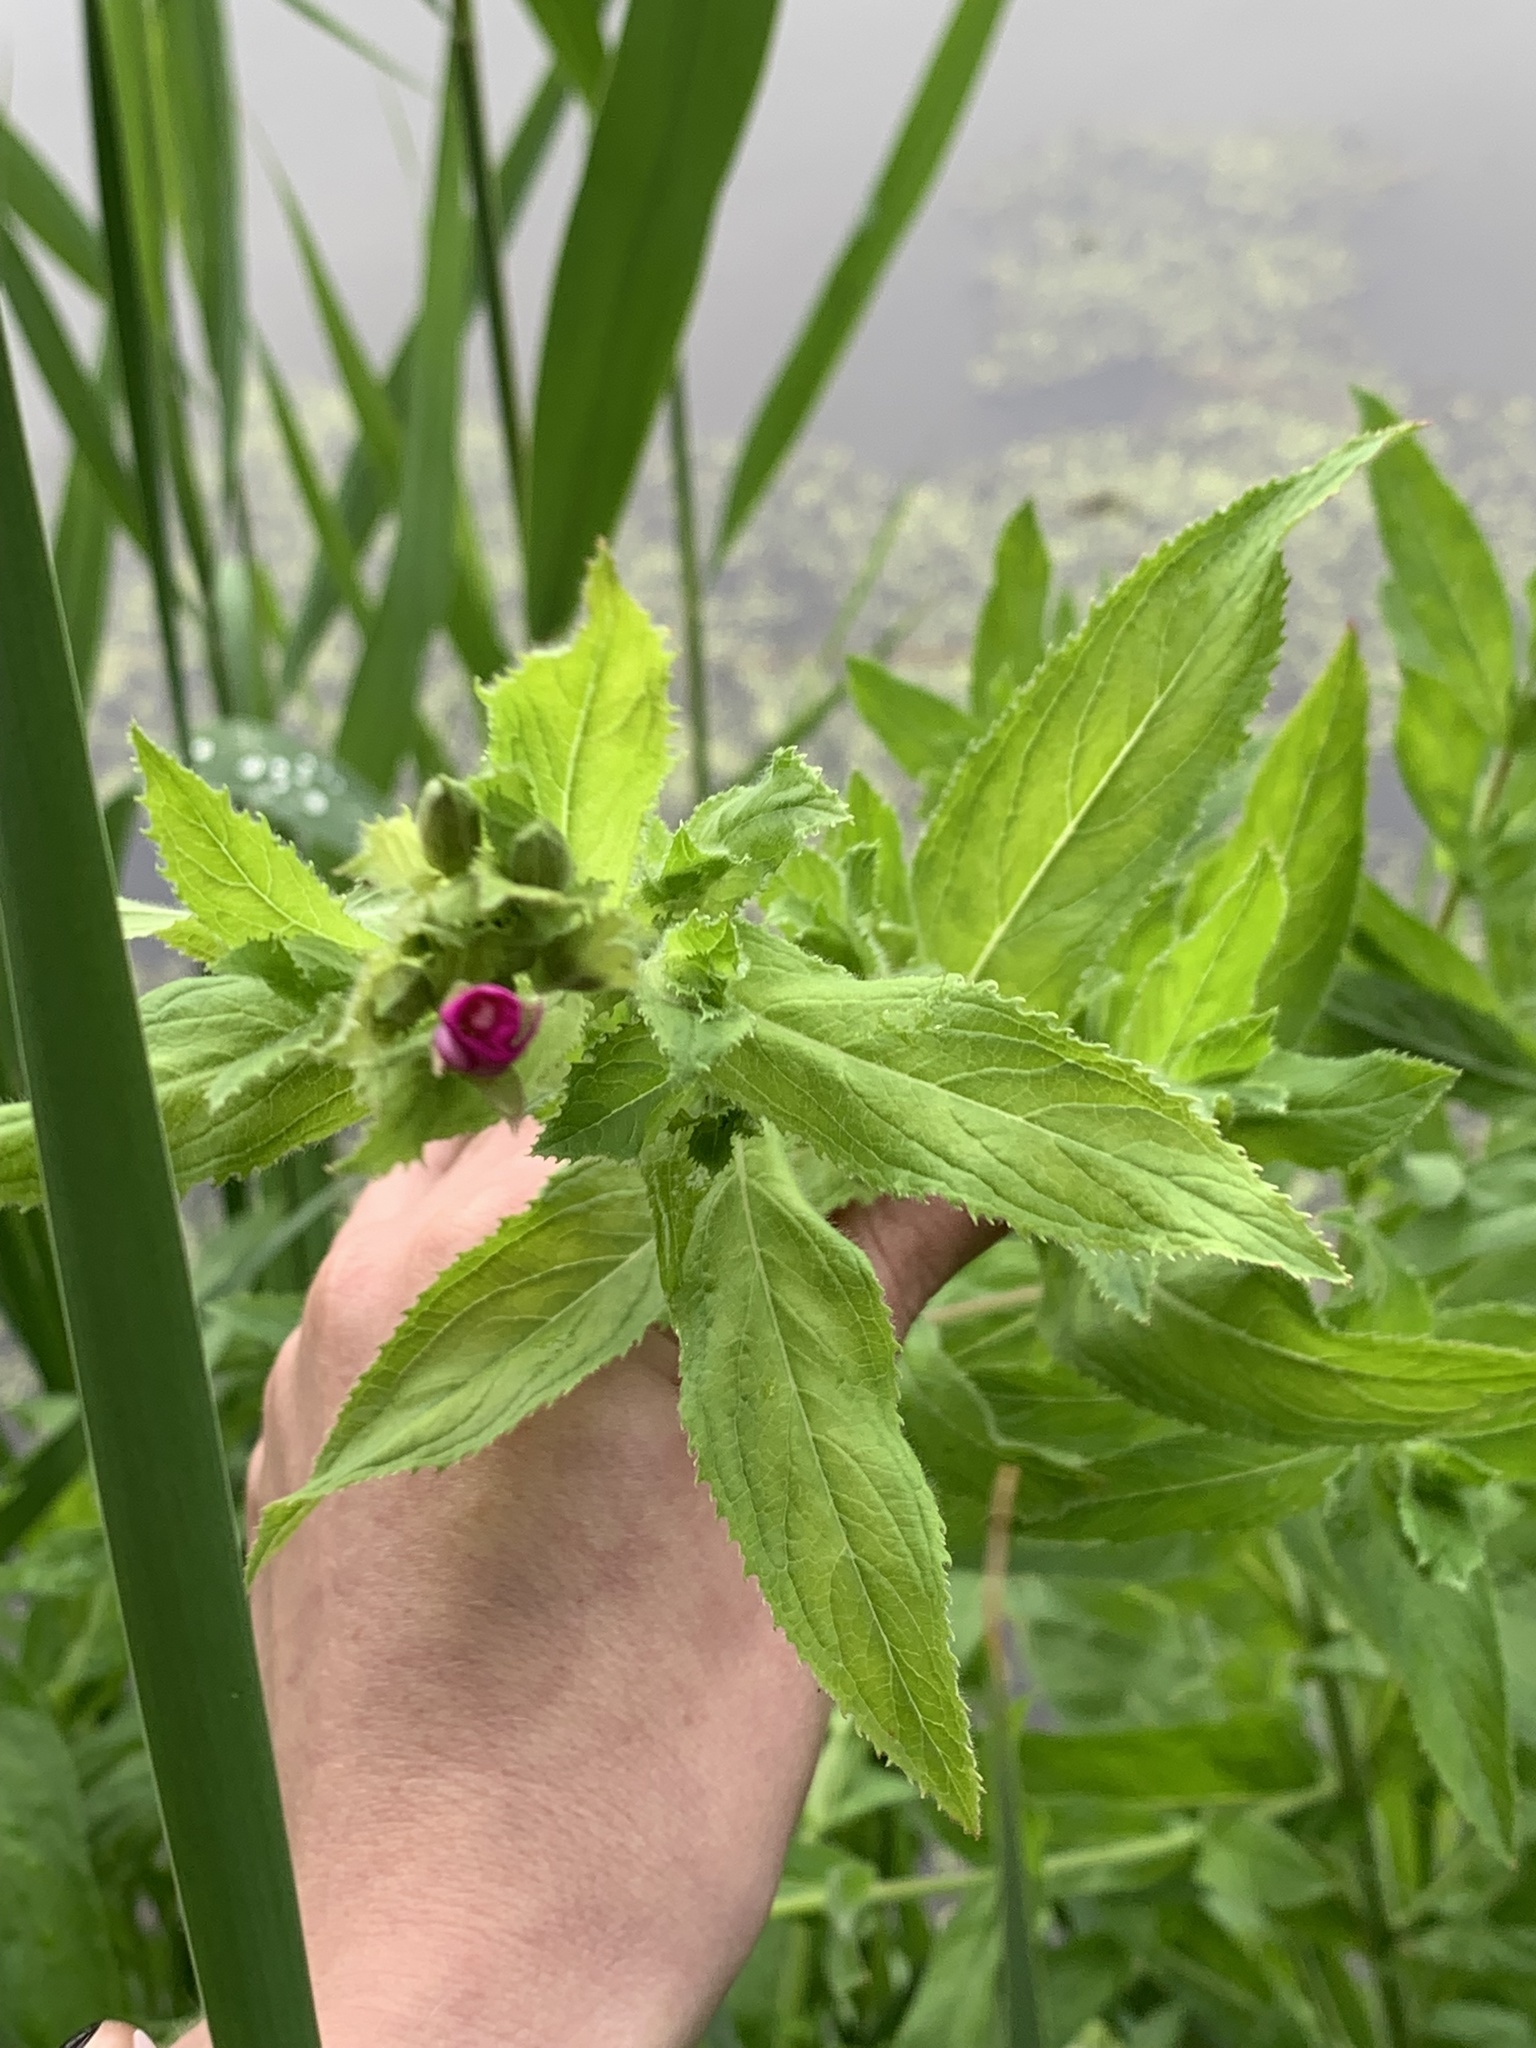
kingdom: Plantae
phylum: Tracheophyta
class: Magnoliopsida
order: Myrtales
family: Onagraceae
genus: Epilobium
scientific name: Epilobium hirsutum
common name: Great willowherb
